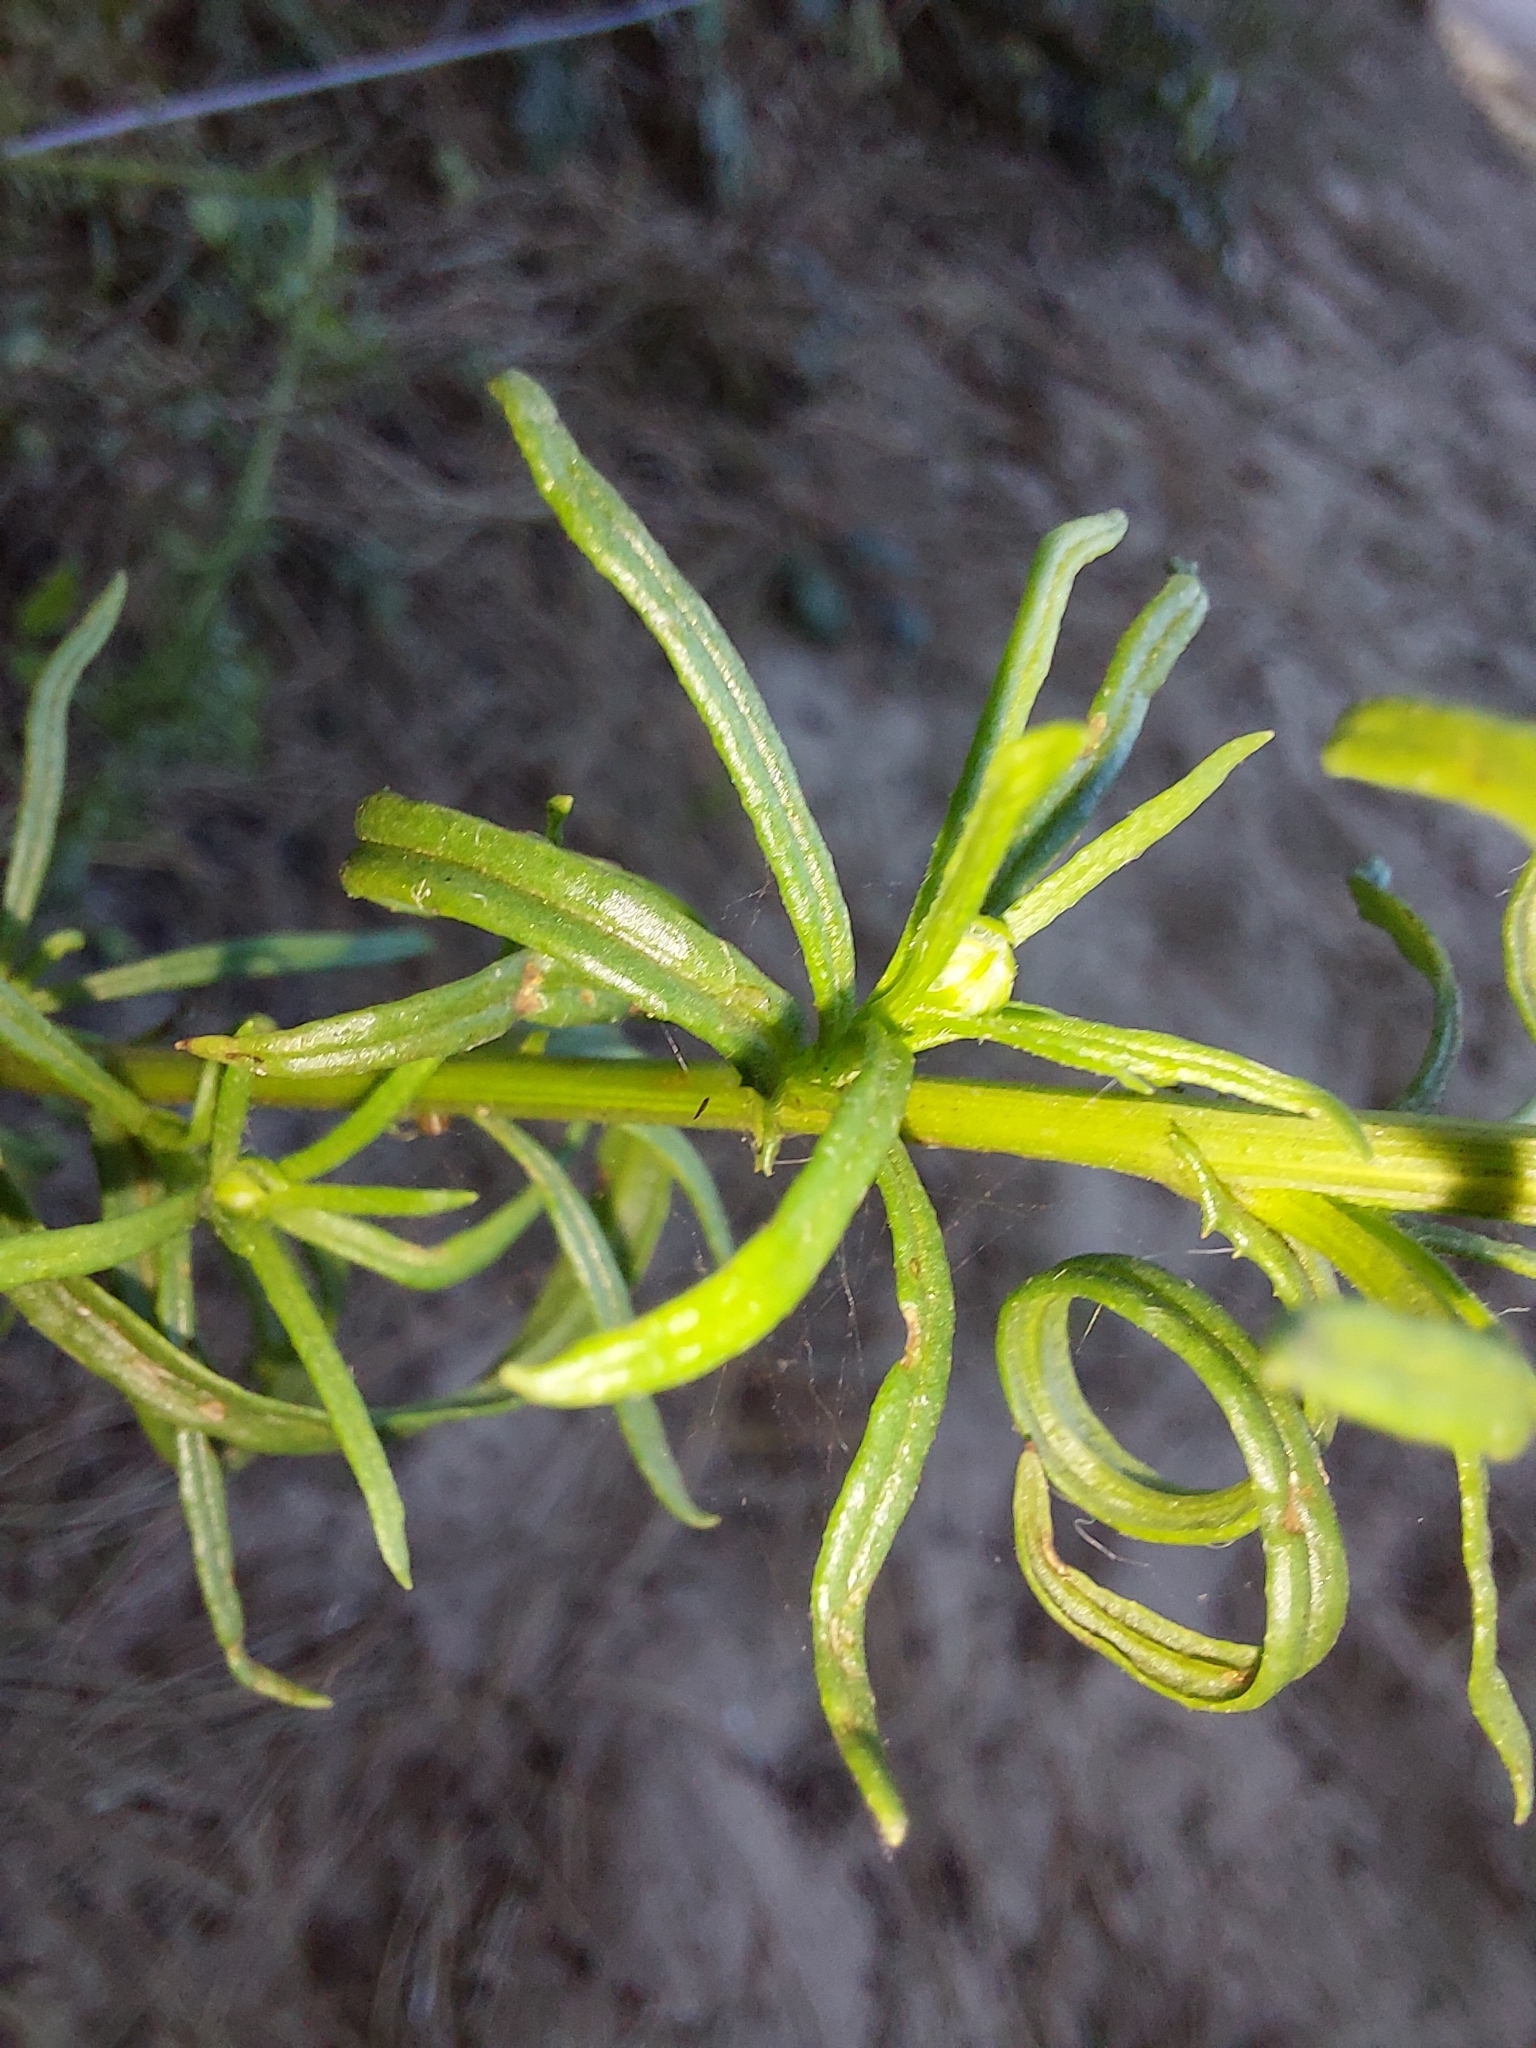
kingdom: Plantae
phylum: Tracheophyta
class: Magnoliopsida
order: Asterales
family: Asteraceae
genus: Senecio
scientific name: Senecio inaequidens
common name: Narrow-leaved ragwort
